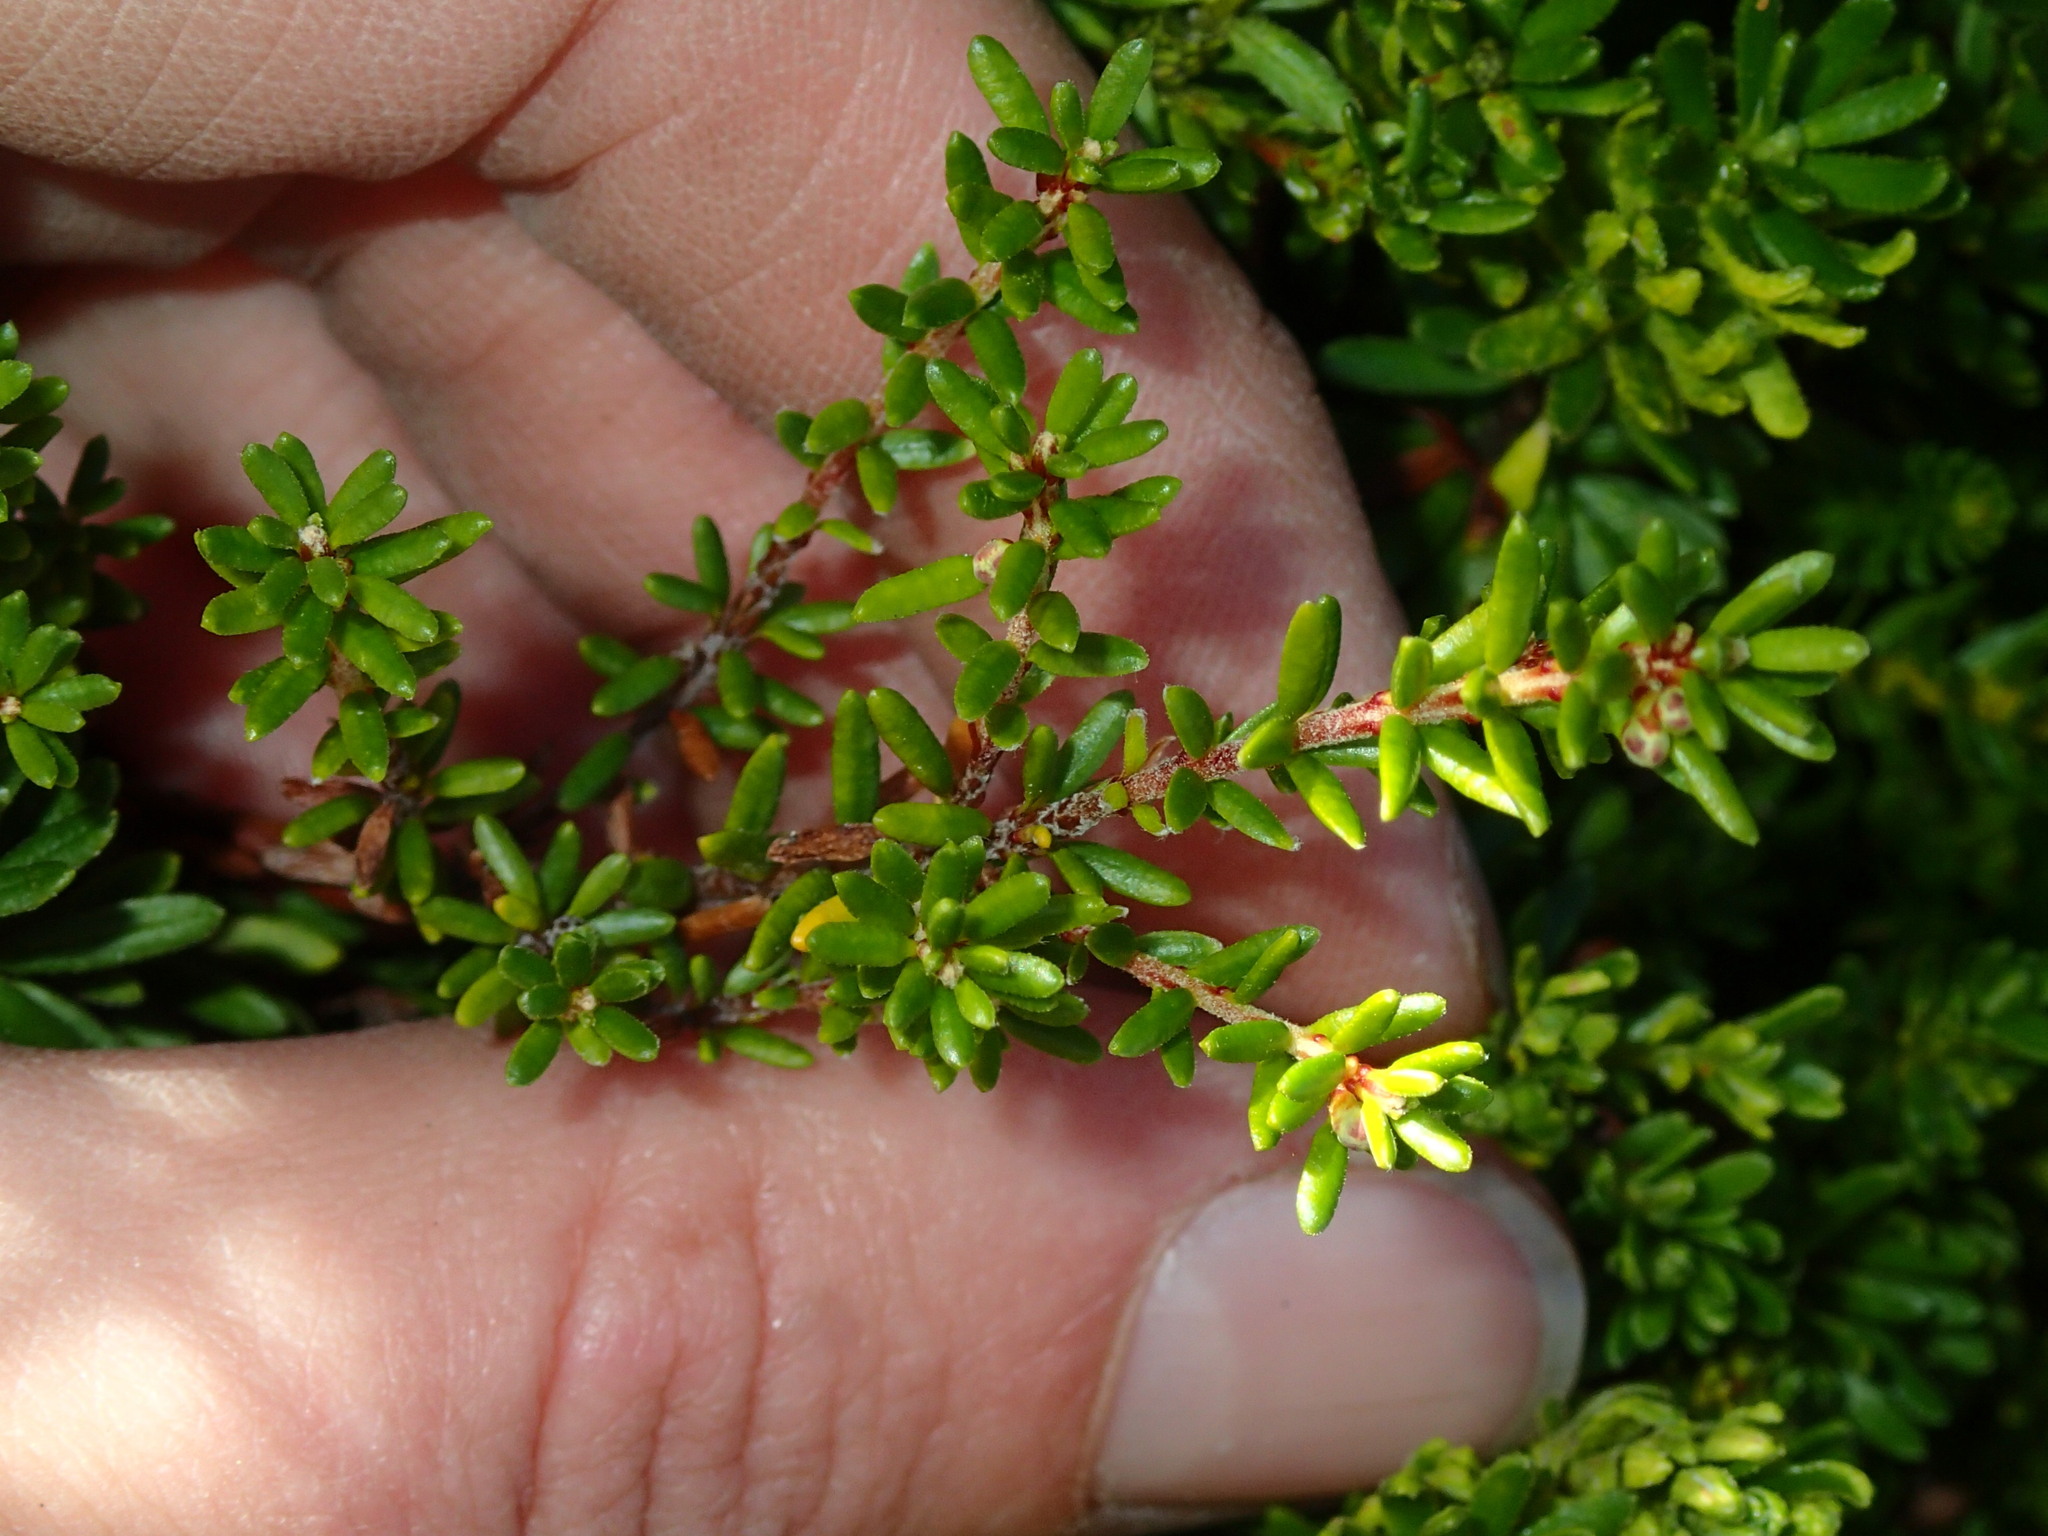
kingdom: Plantae
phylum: Tracheophyta
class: Magnoliopsida
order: Ericales
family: Ericaceae
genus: Empetrum
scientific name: Empetrum nigrum
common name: Black crowberry
